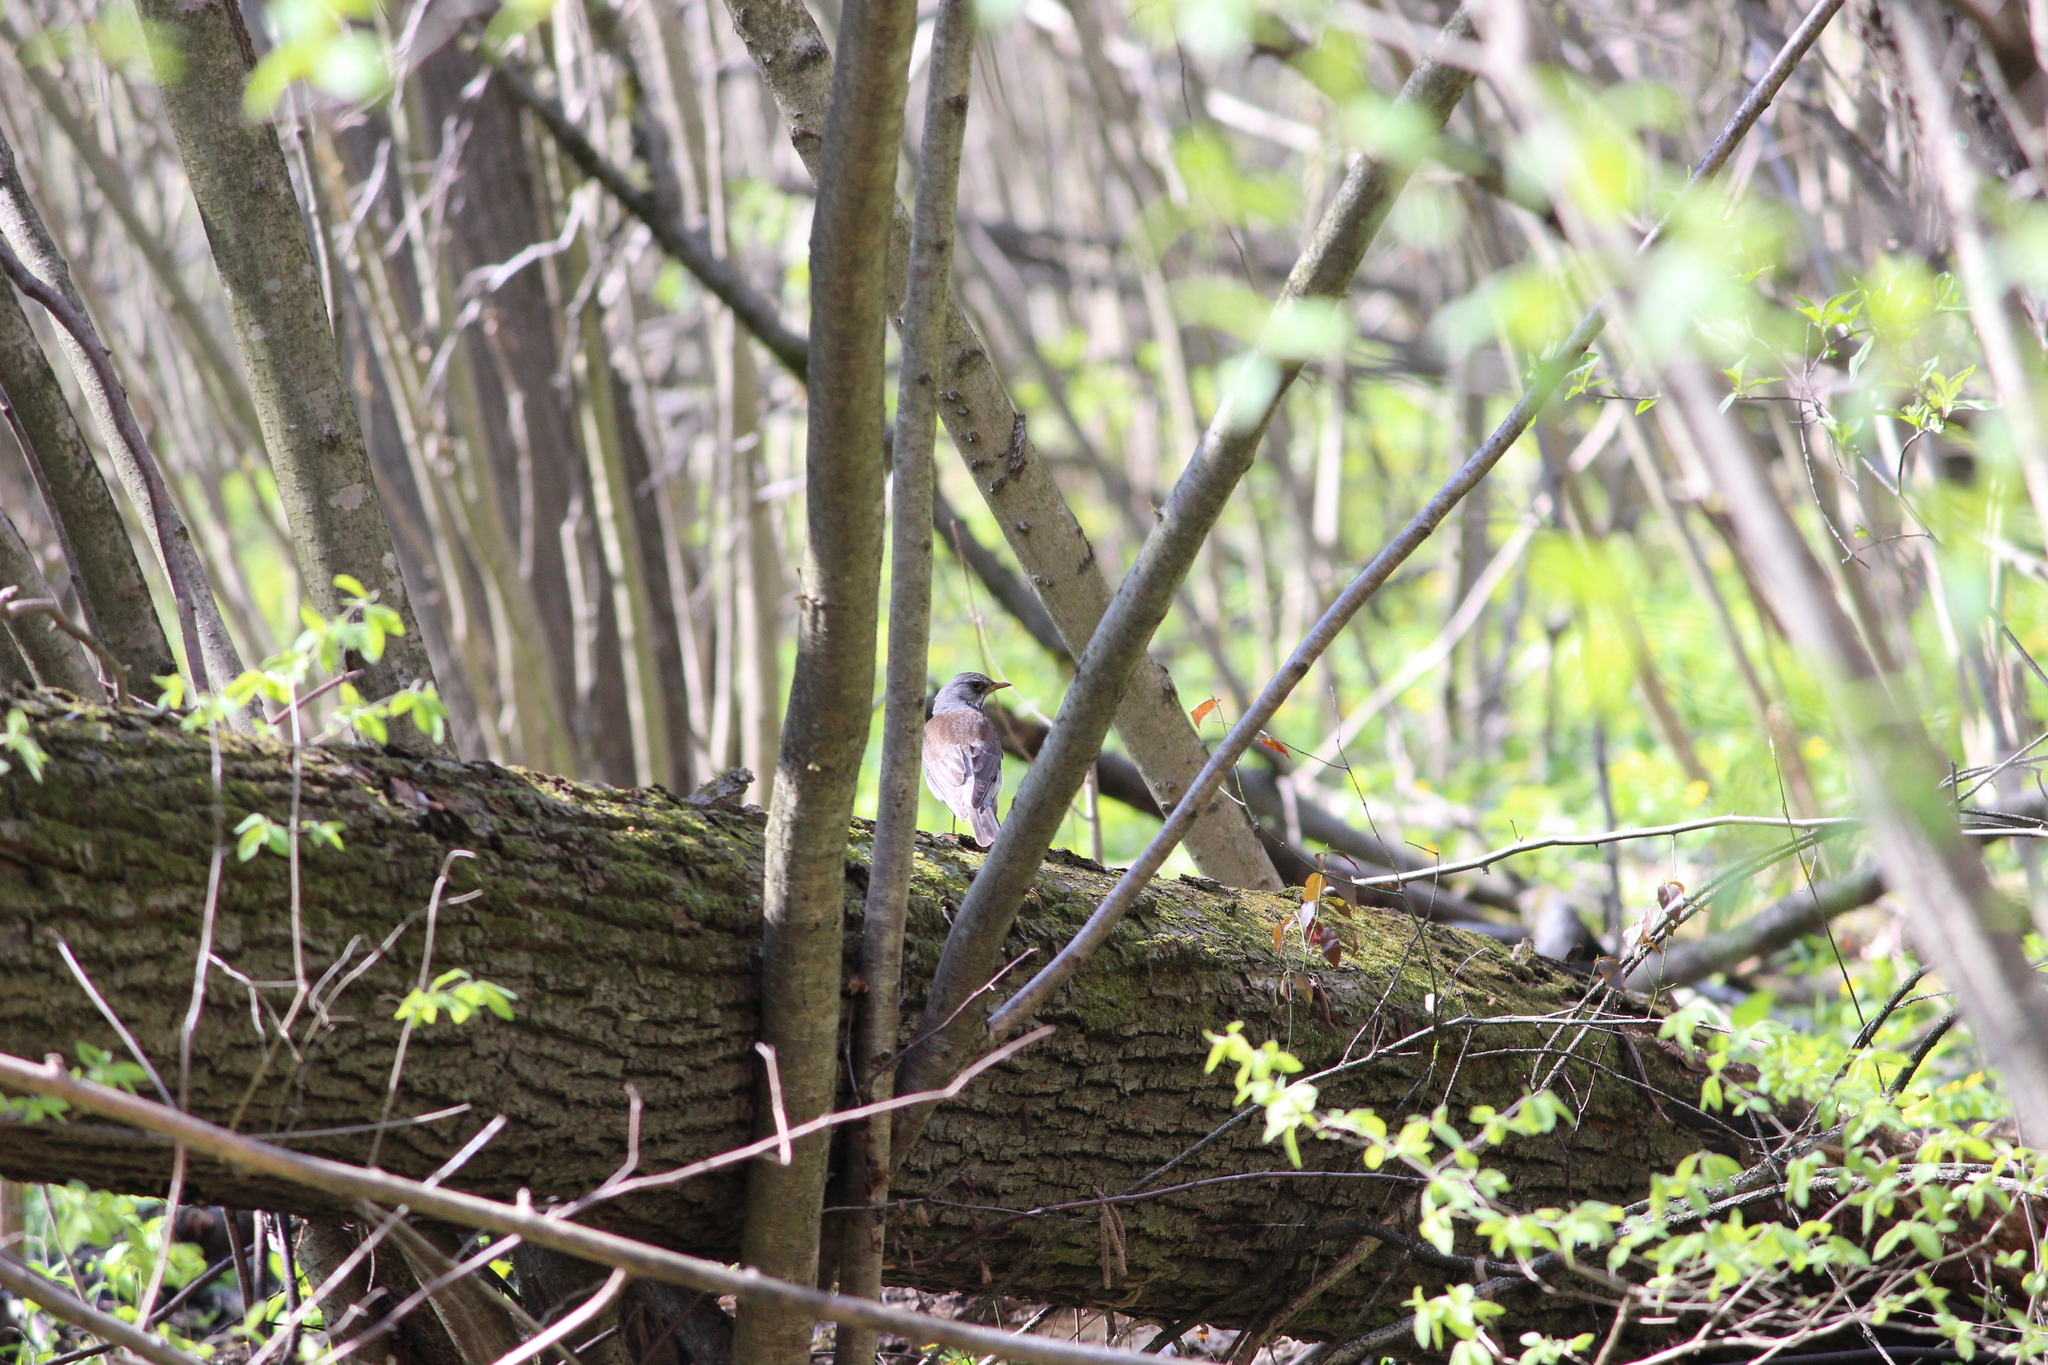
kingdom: Animalia
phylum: Chordata
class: Aves
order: Passeriformes
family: Turdidae
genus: Turdus
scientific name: Turdus pilaris
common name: Fieldfare
